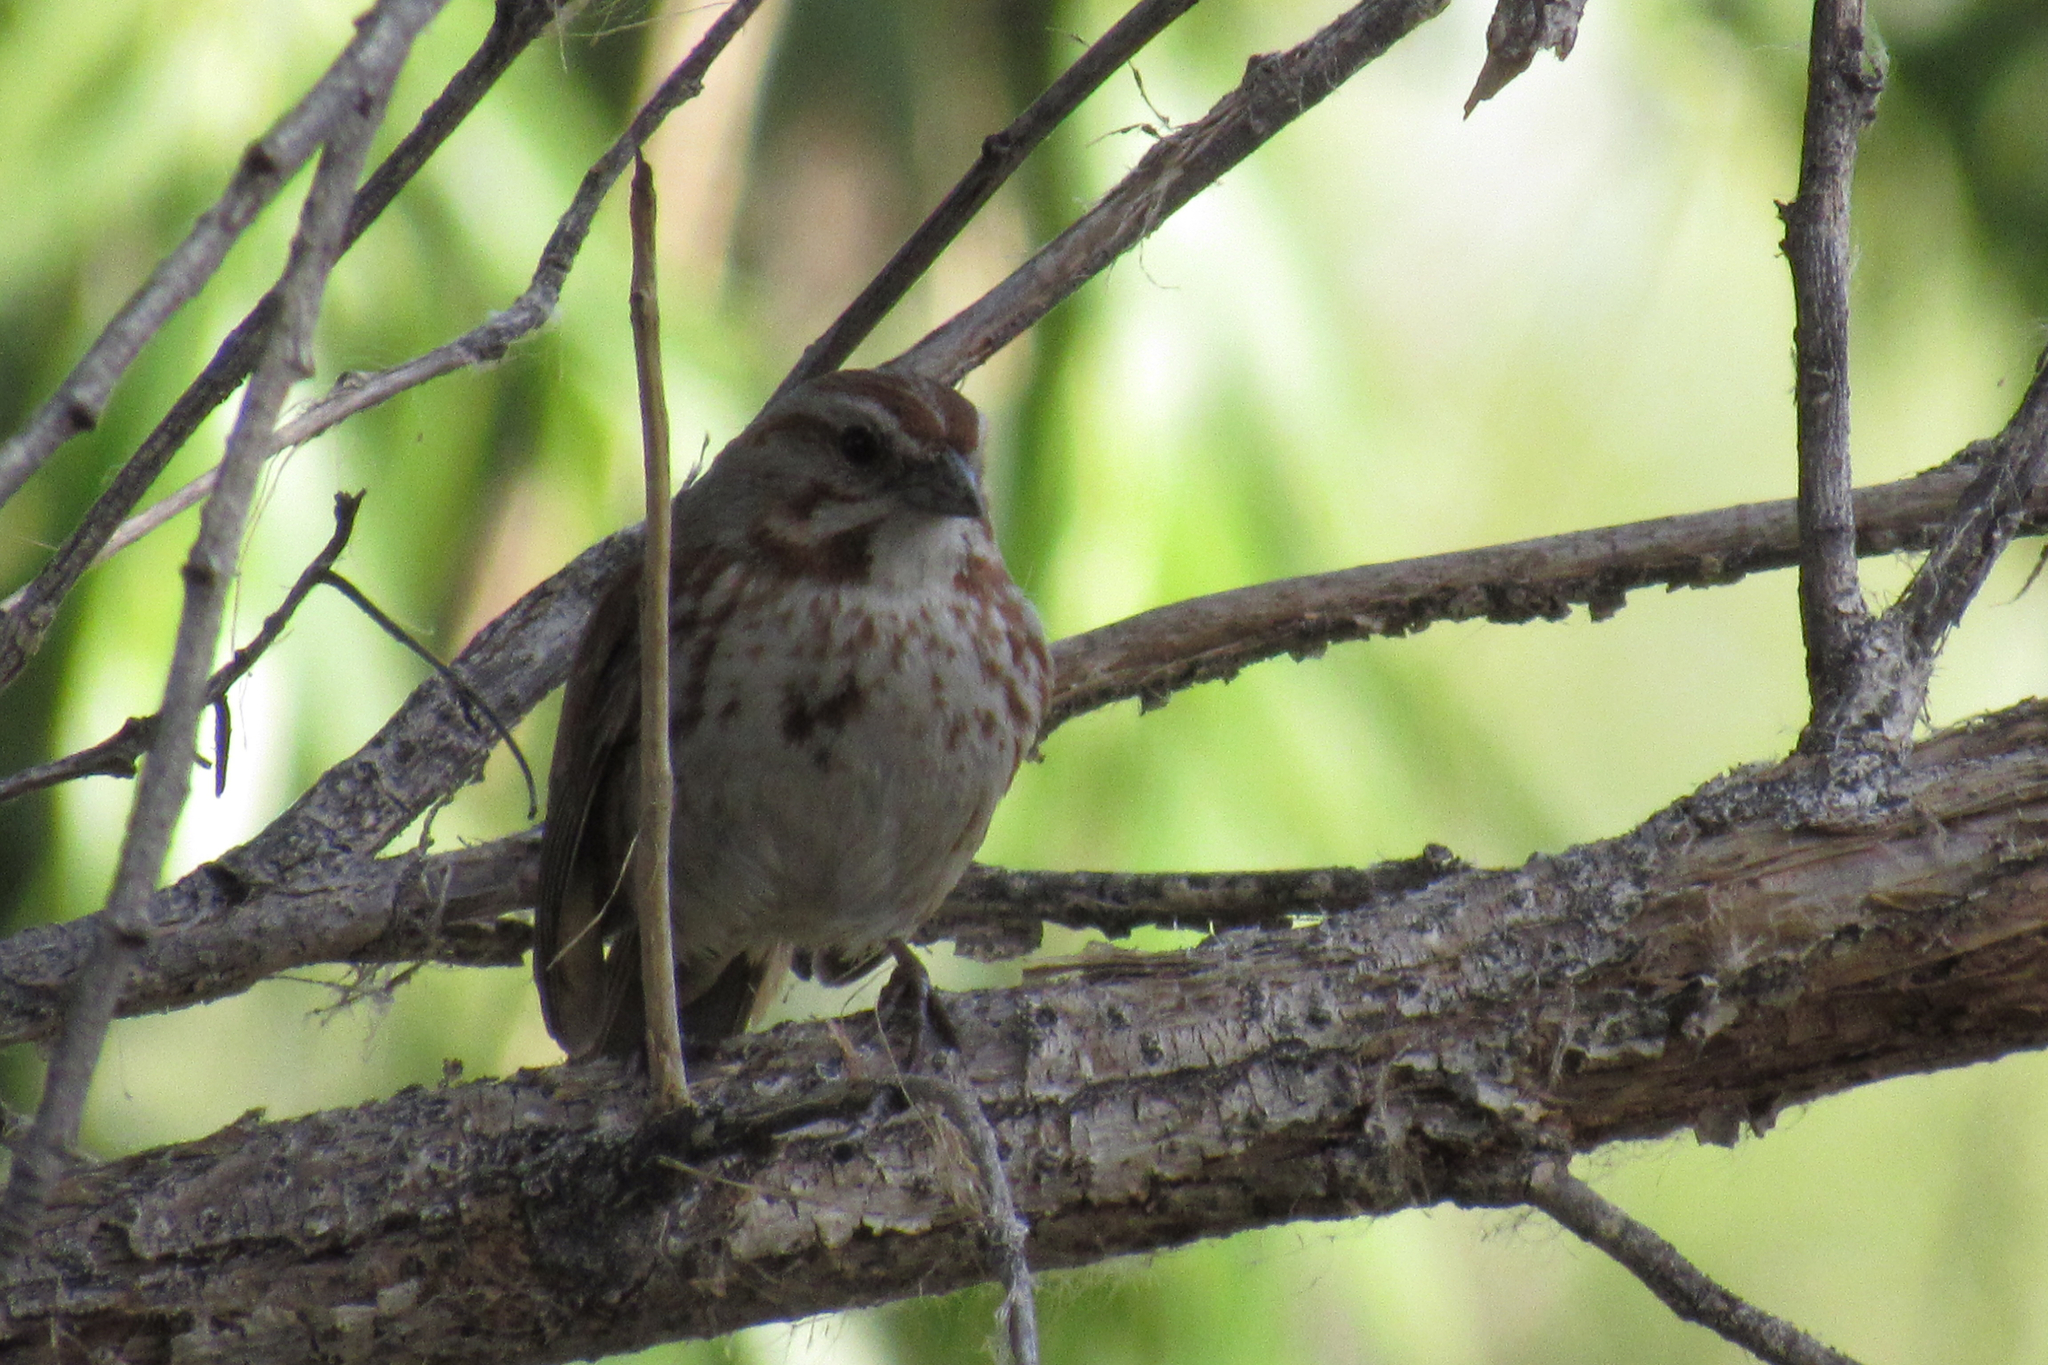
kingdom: Animalia
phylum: Chordata
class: Aves
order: Passeriformes
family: Passerellidae
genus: Melospiza
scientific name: Melospiza melodia
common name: Song sparrow
